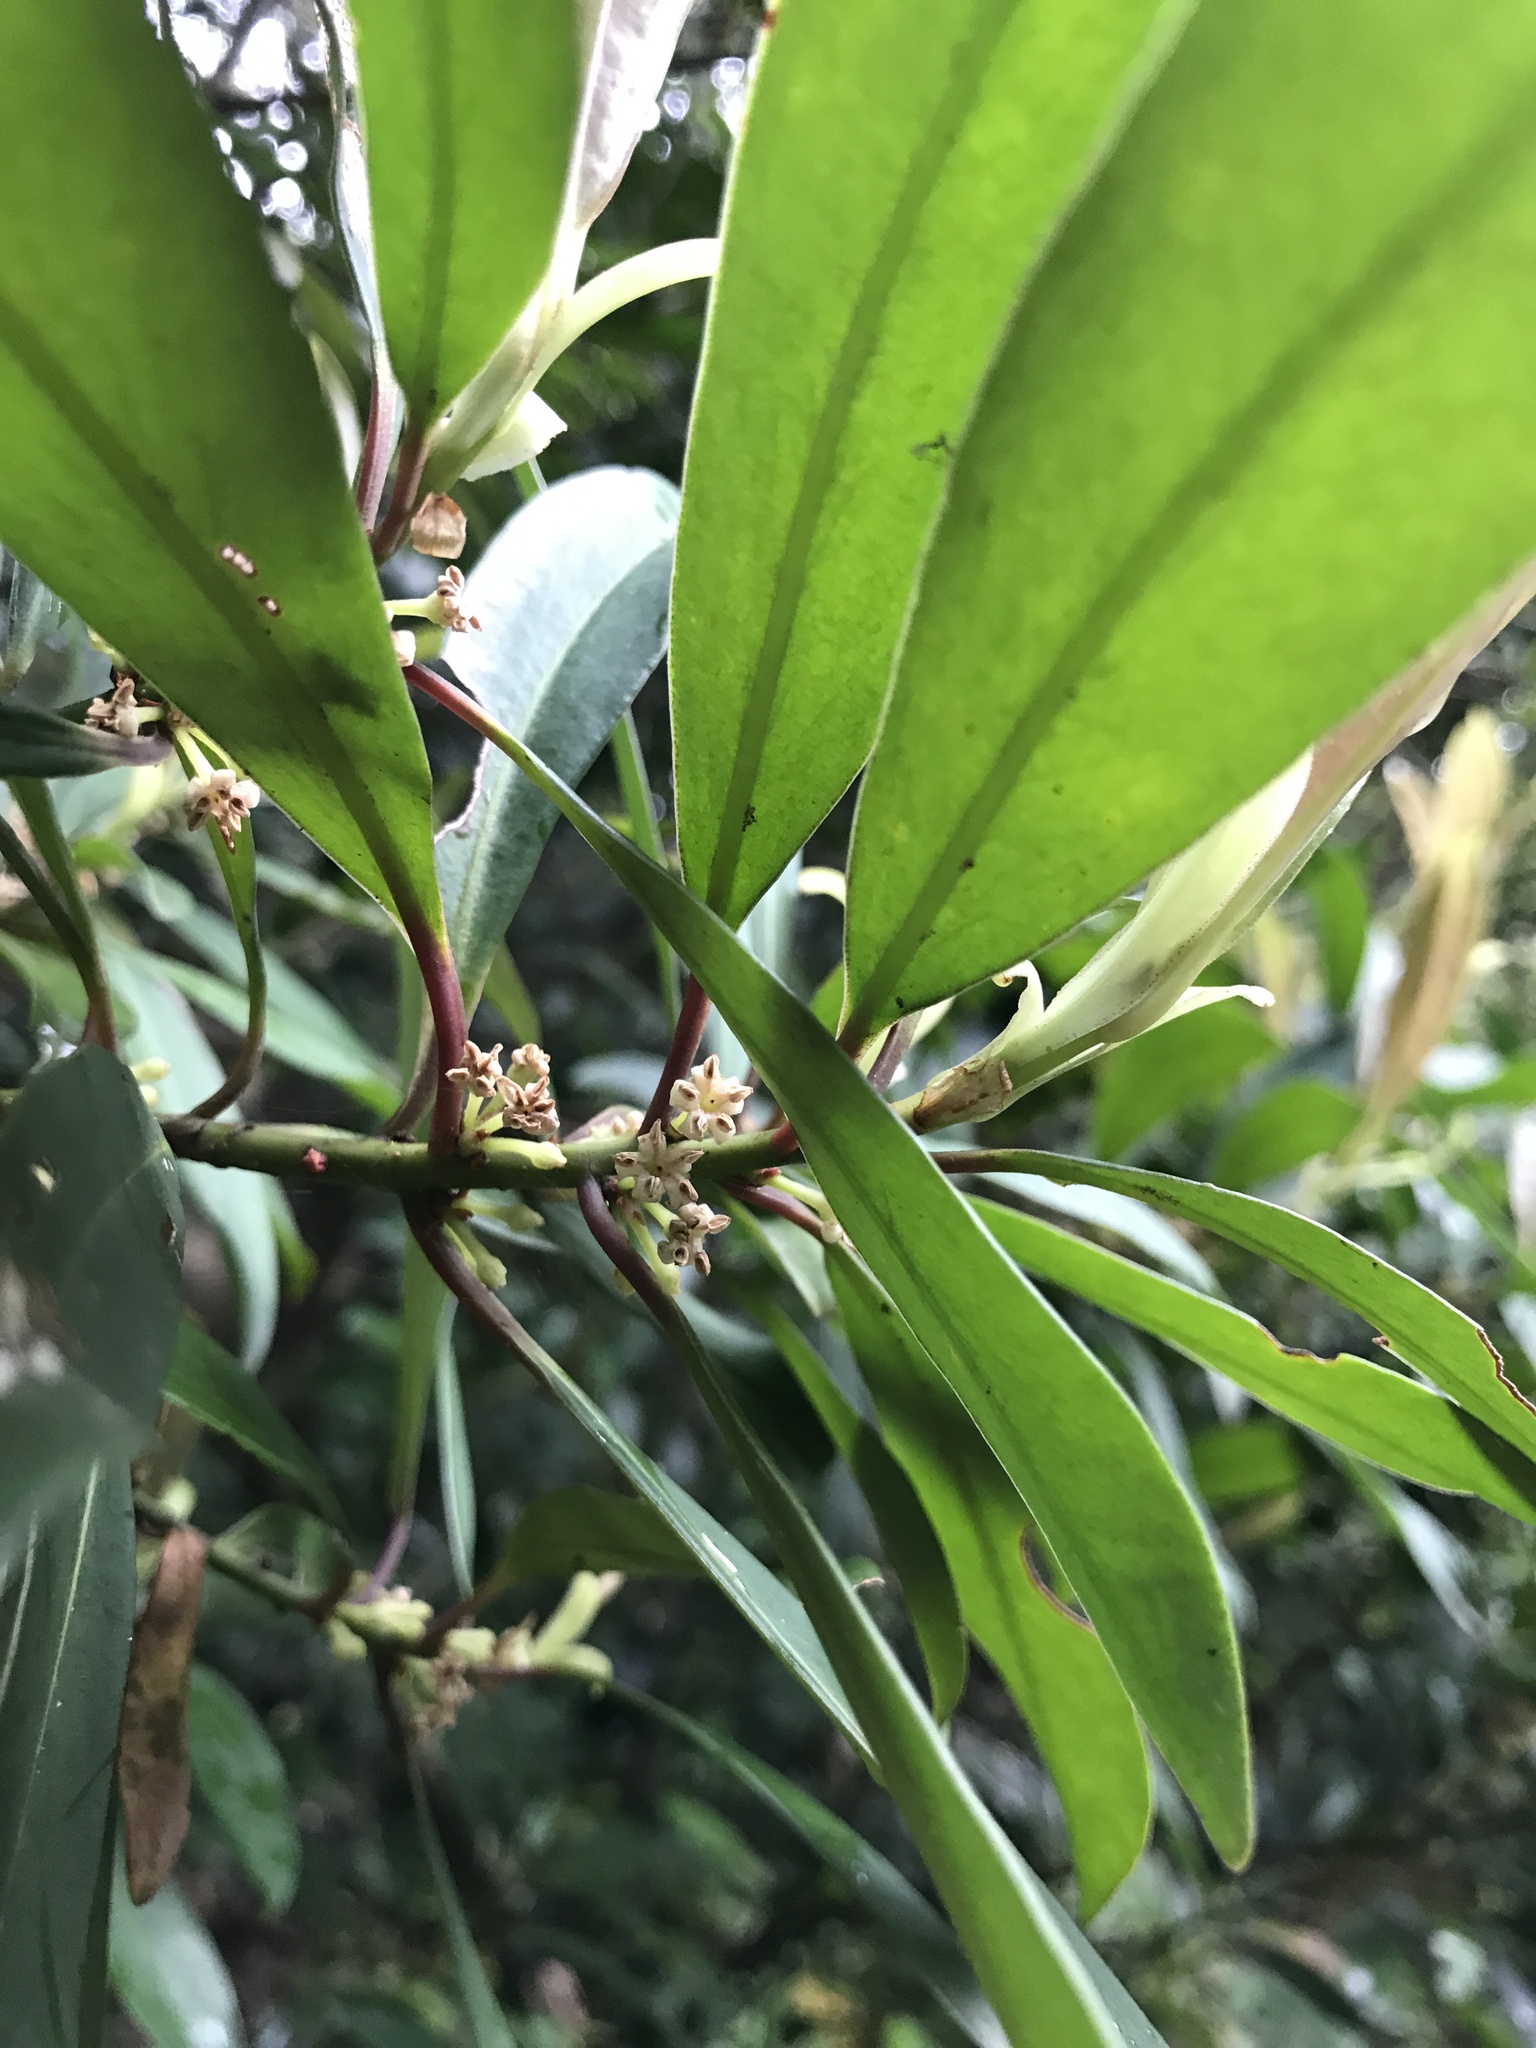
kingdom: Plantae
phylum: Tracheophyta
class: Magnoliopsida
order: Ericales
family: Primulaceae
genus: Myrsine
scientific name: Myrsine seguinii
